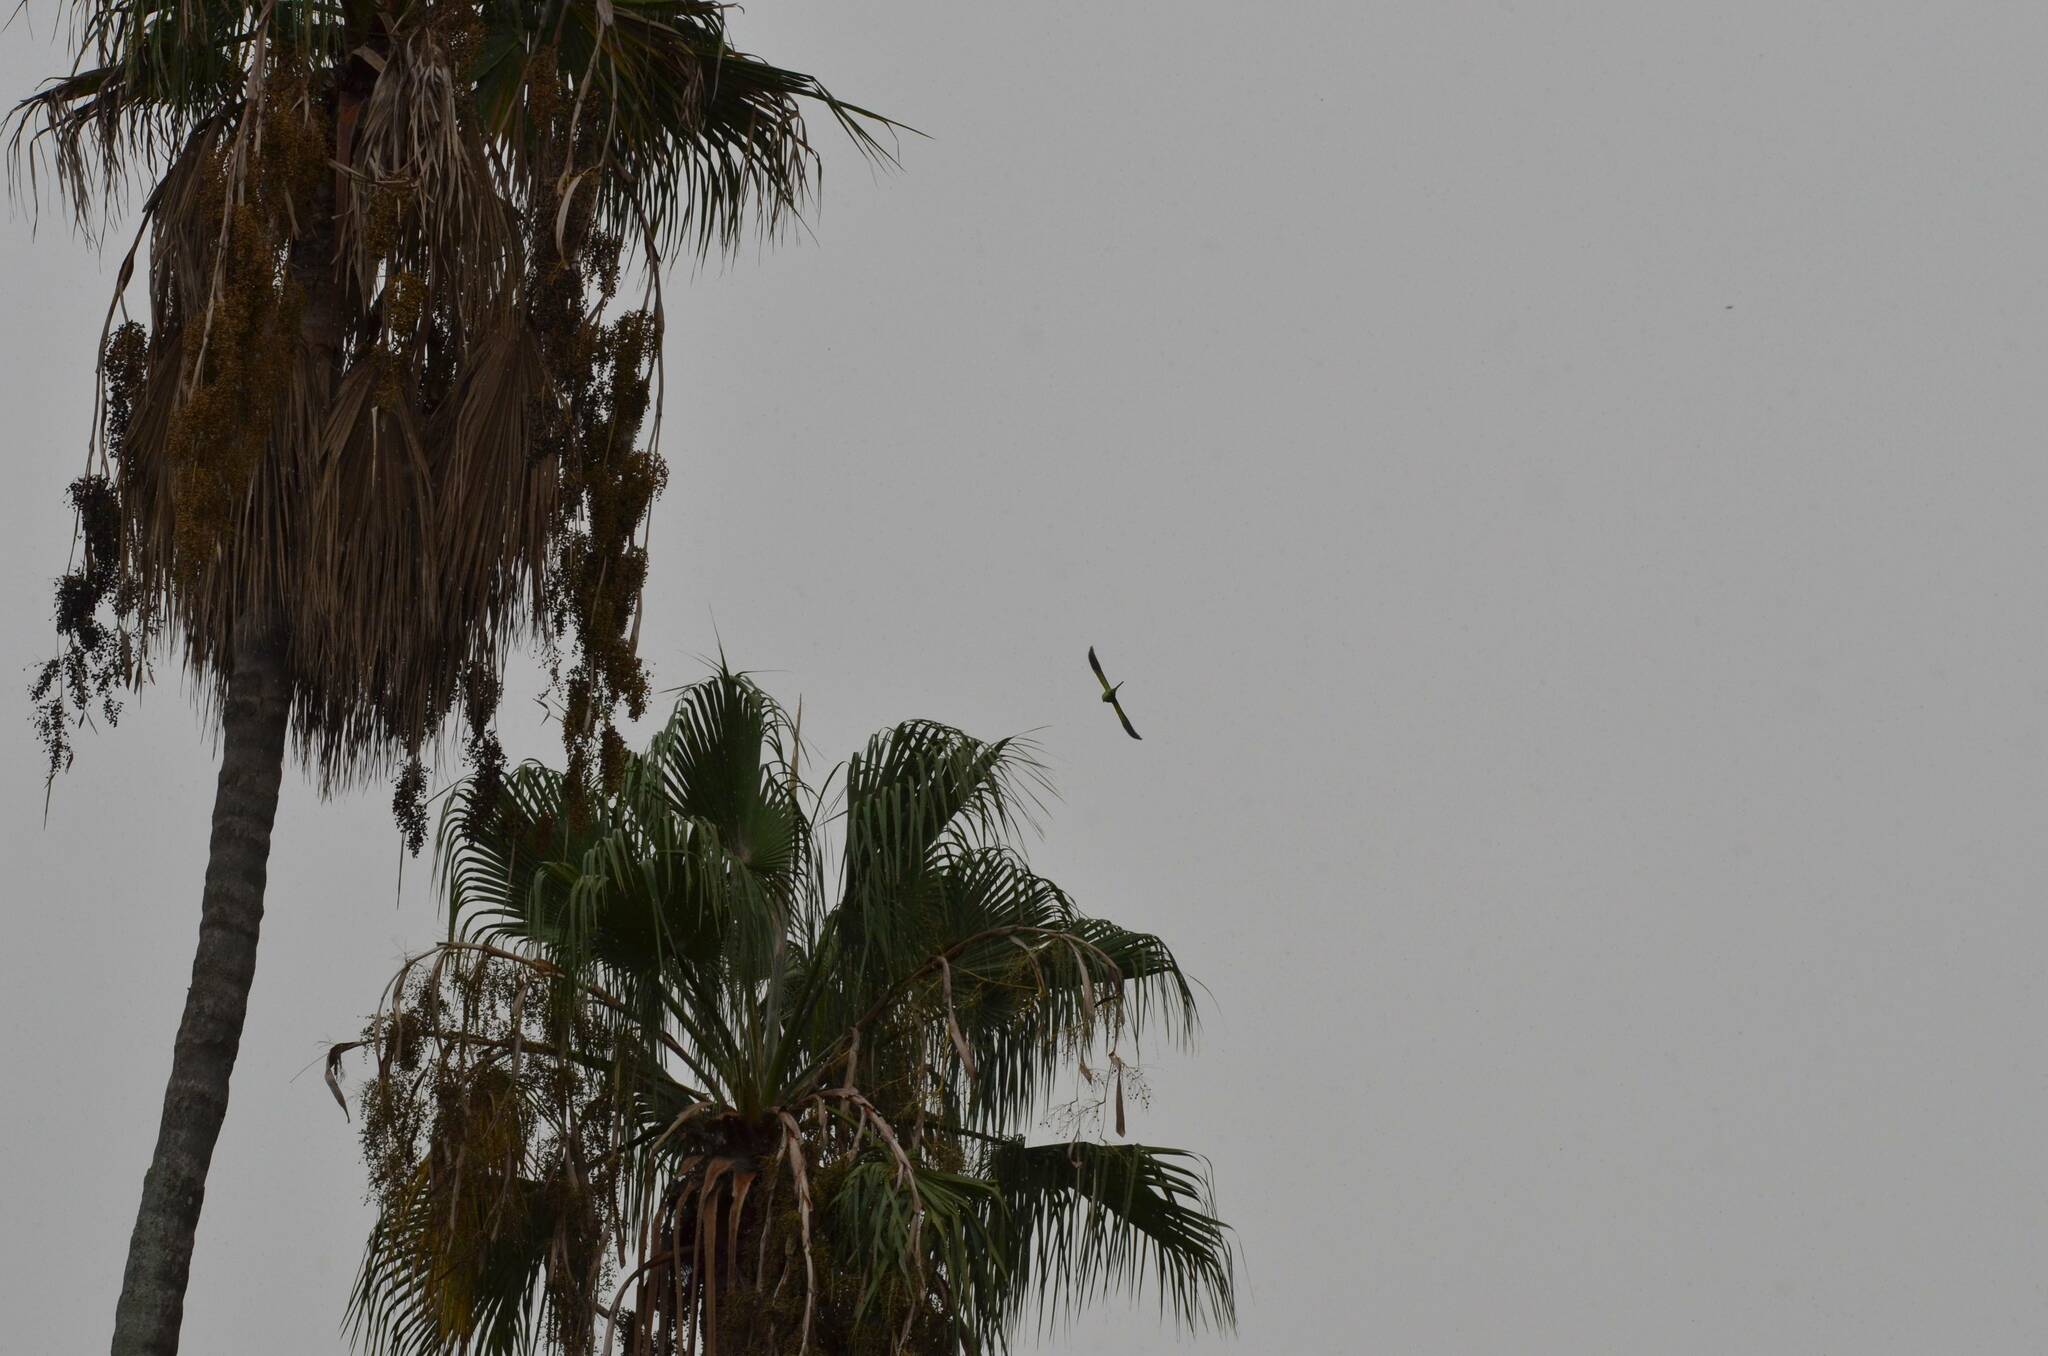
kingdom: Animalia
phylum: Chordata
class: Aves
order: Psittaciformes
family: Psittacidae
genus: Psittacula
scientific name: Psittacula krameri
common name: Rose-ringed parakeet
